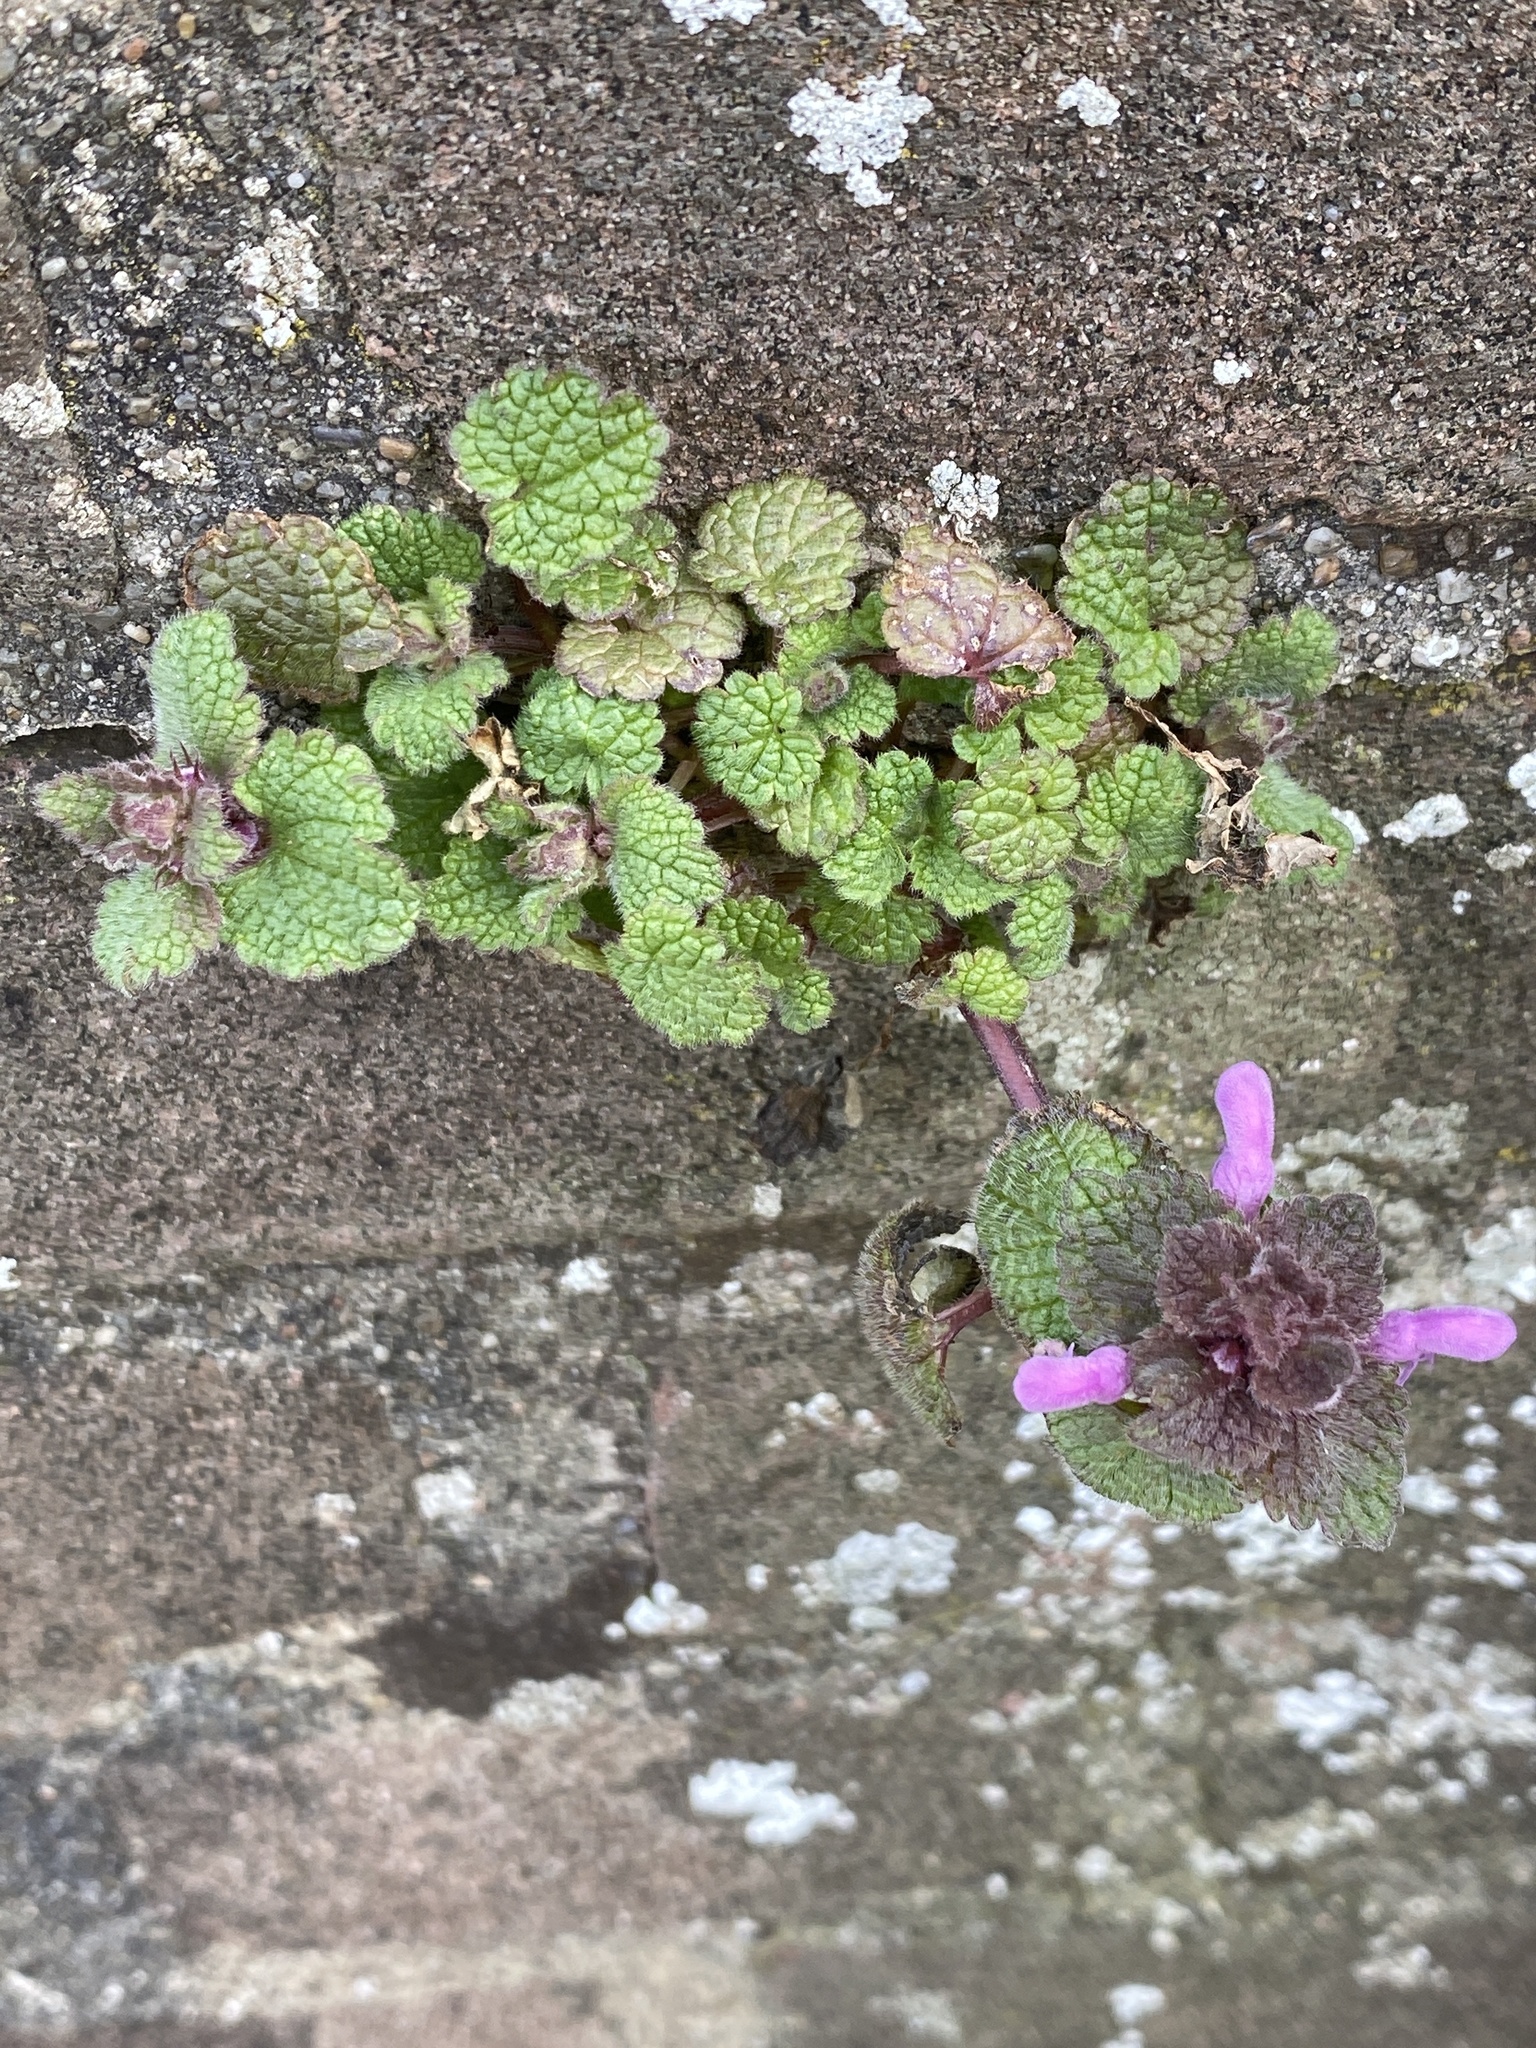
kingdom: Plantae
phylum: Tracheophyta
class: Magnoliopsida
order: Lamiales
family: Lamiaceae
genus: Lamium
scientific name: Lamium purpureum
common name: Red dead-nettle
